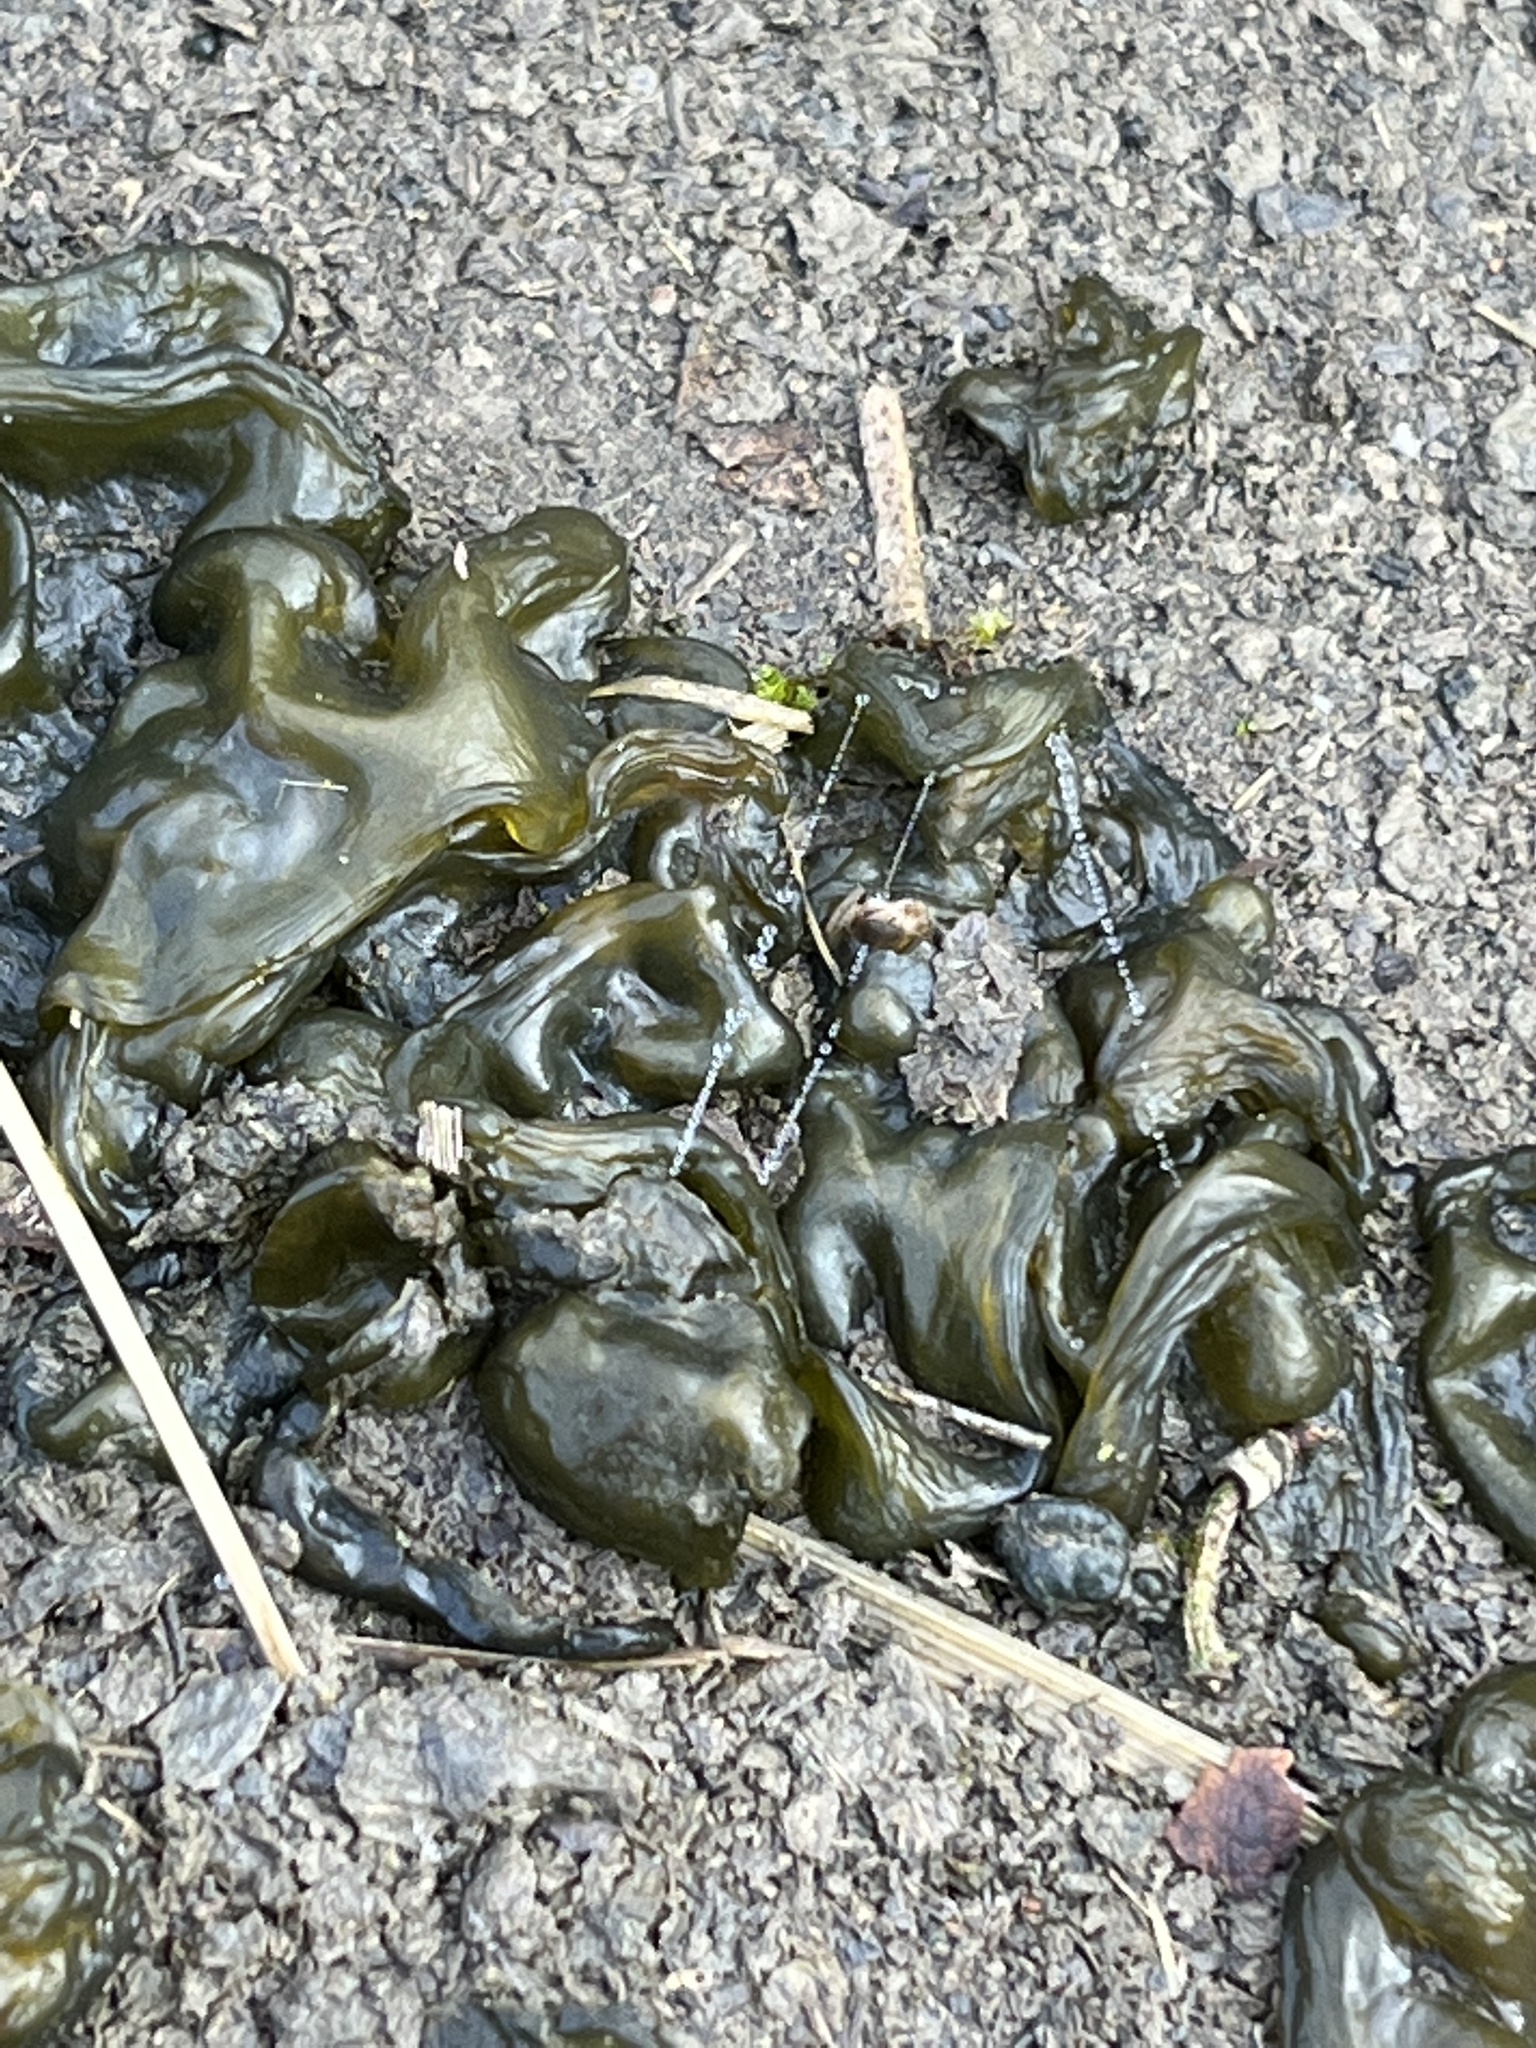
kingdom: Bacteria
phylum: Cyanobacteria
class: Cyanobacteriia
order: Cyanobacteriales
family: Nostocaceae
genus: Nostoc
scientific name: Nostoc commune
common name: Star jelly
